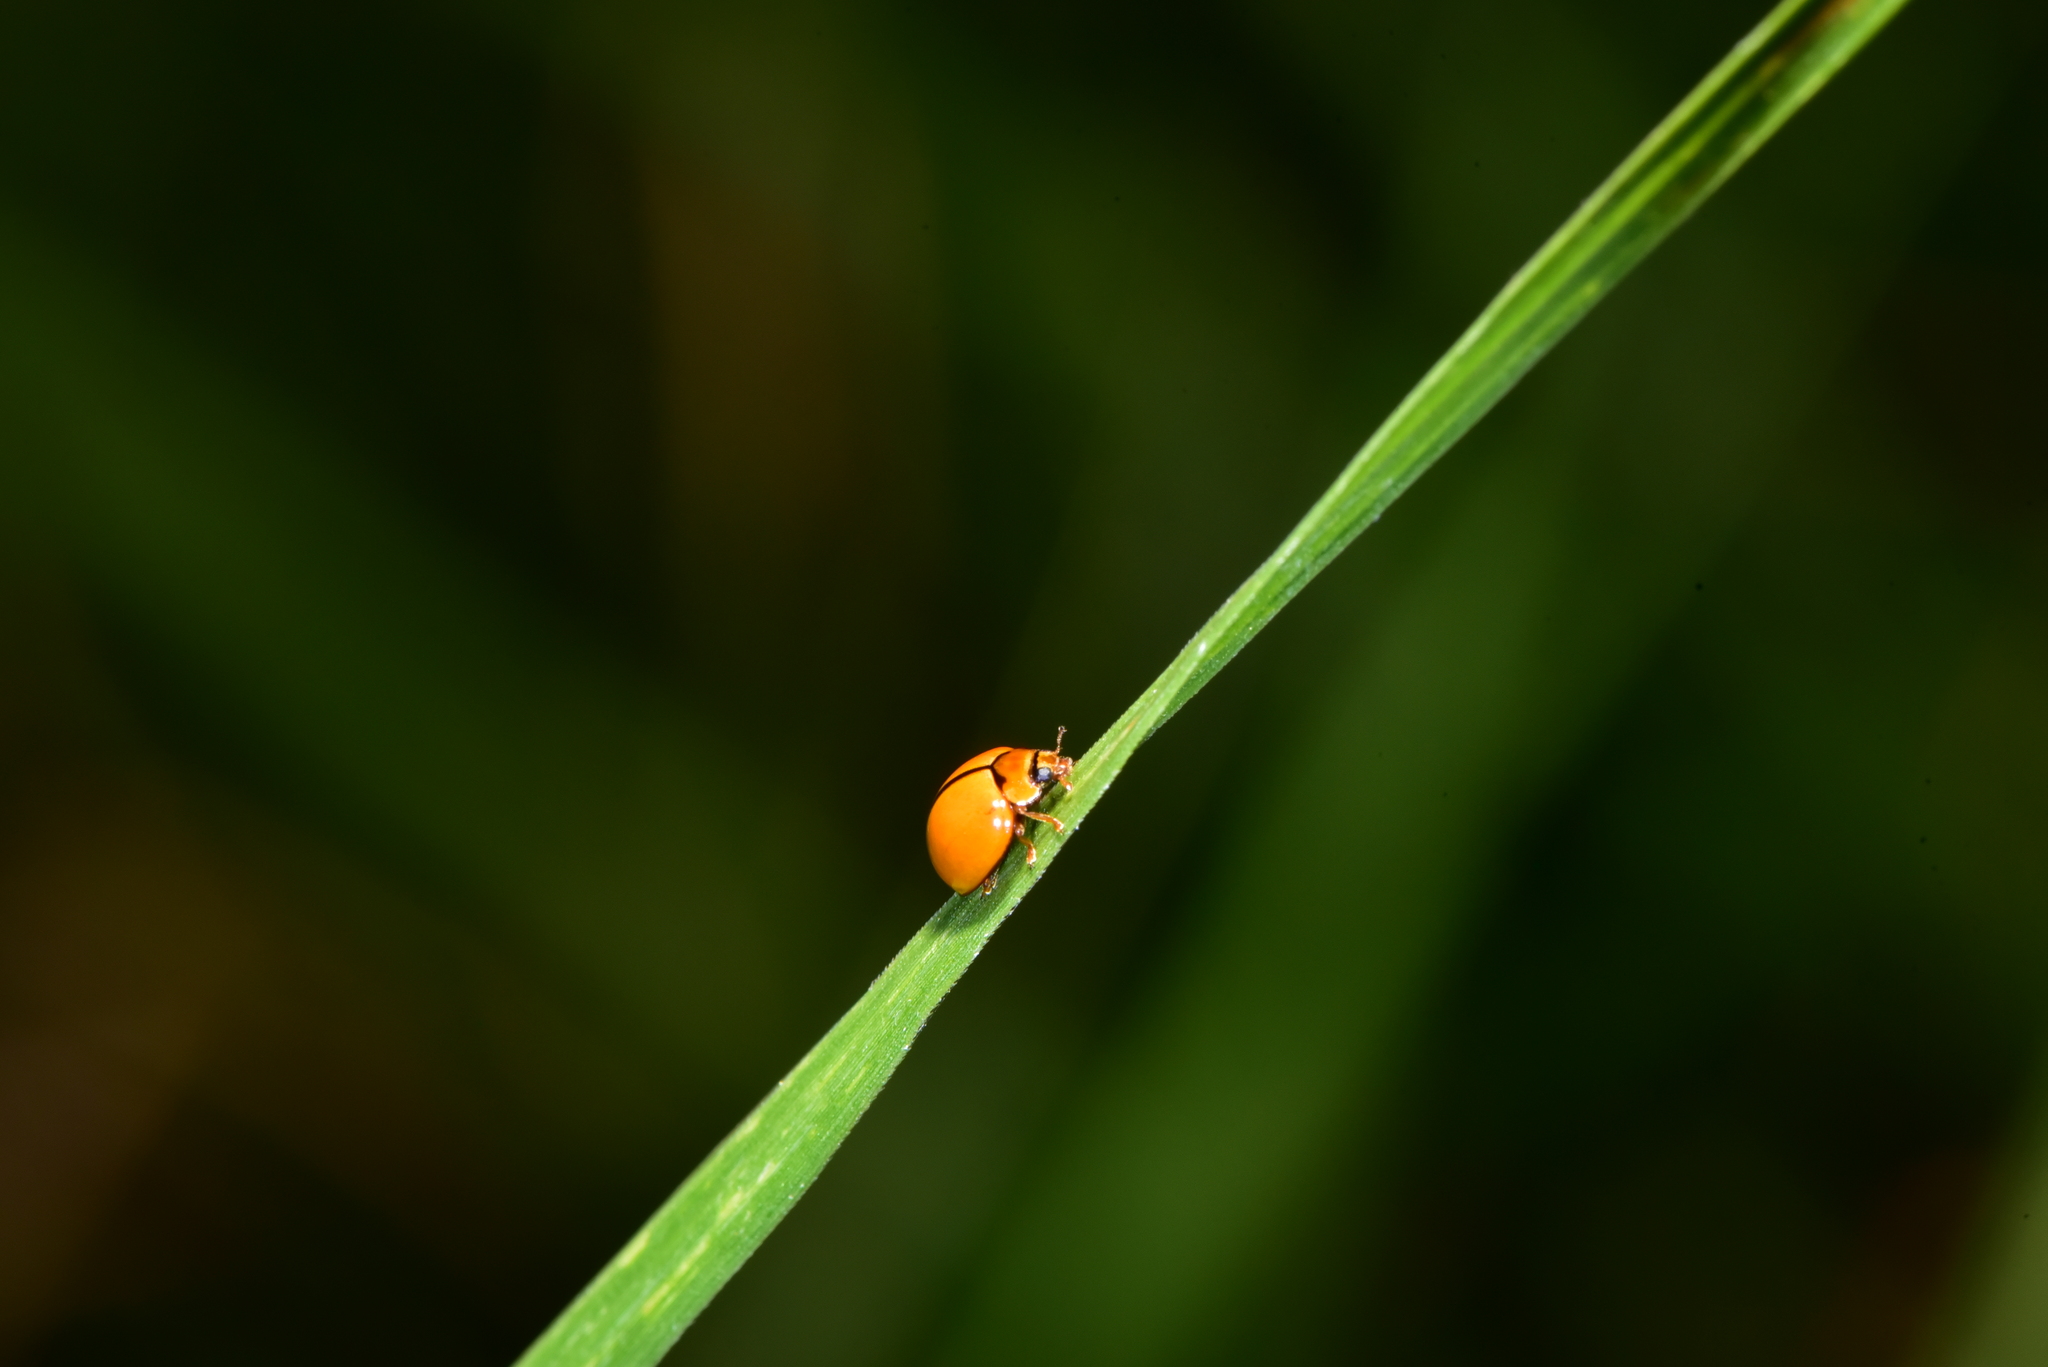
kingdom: Animalia
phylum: Arthropoda
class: Insecta
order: Coleoptera
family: Coccinellidae
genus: Micraspis
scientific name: Micraspis discolor
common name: Lady beetle
